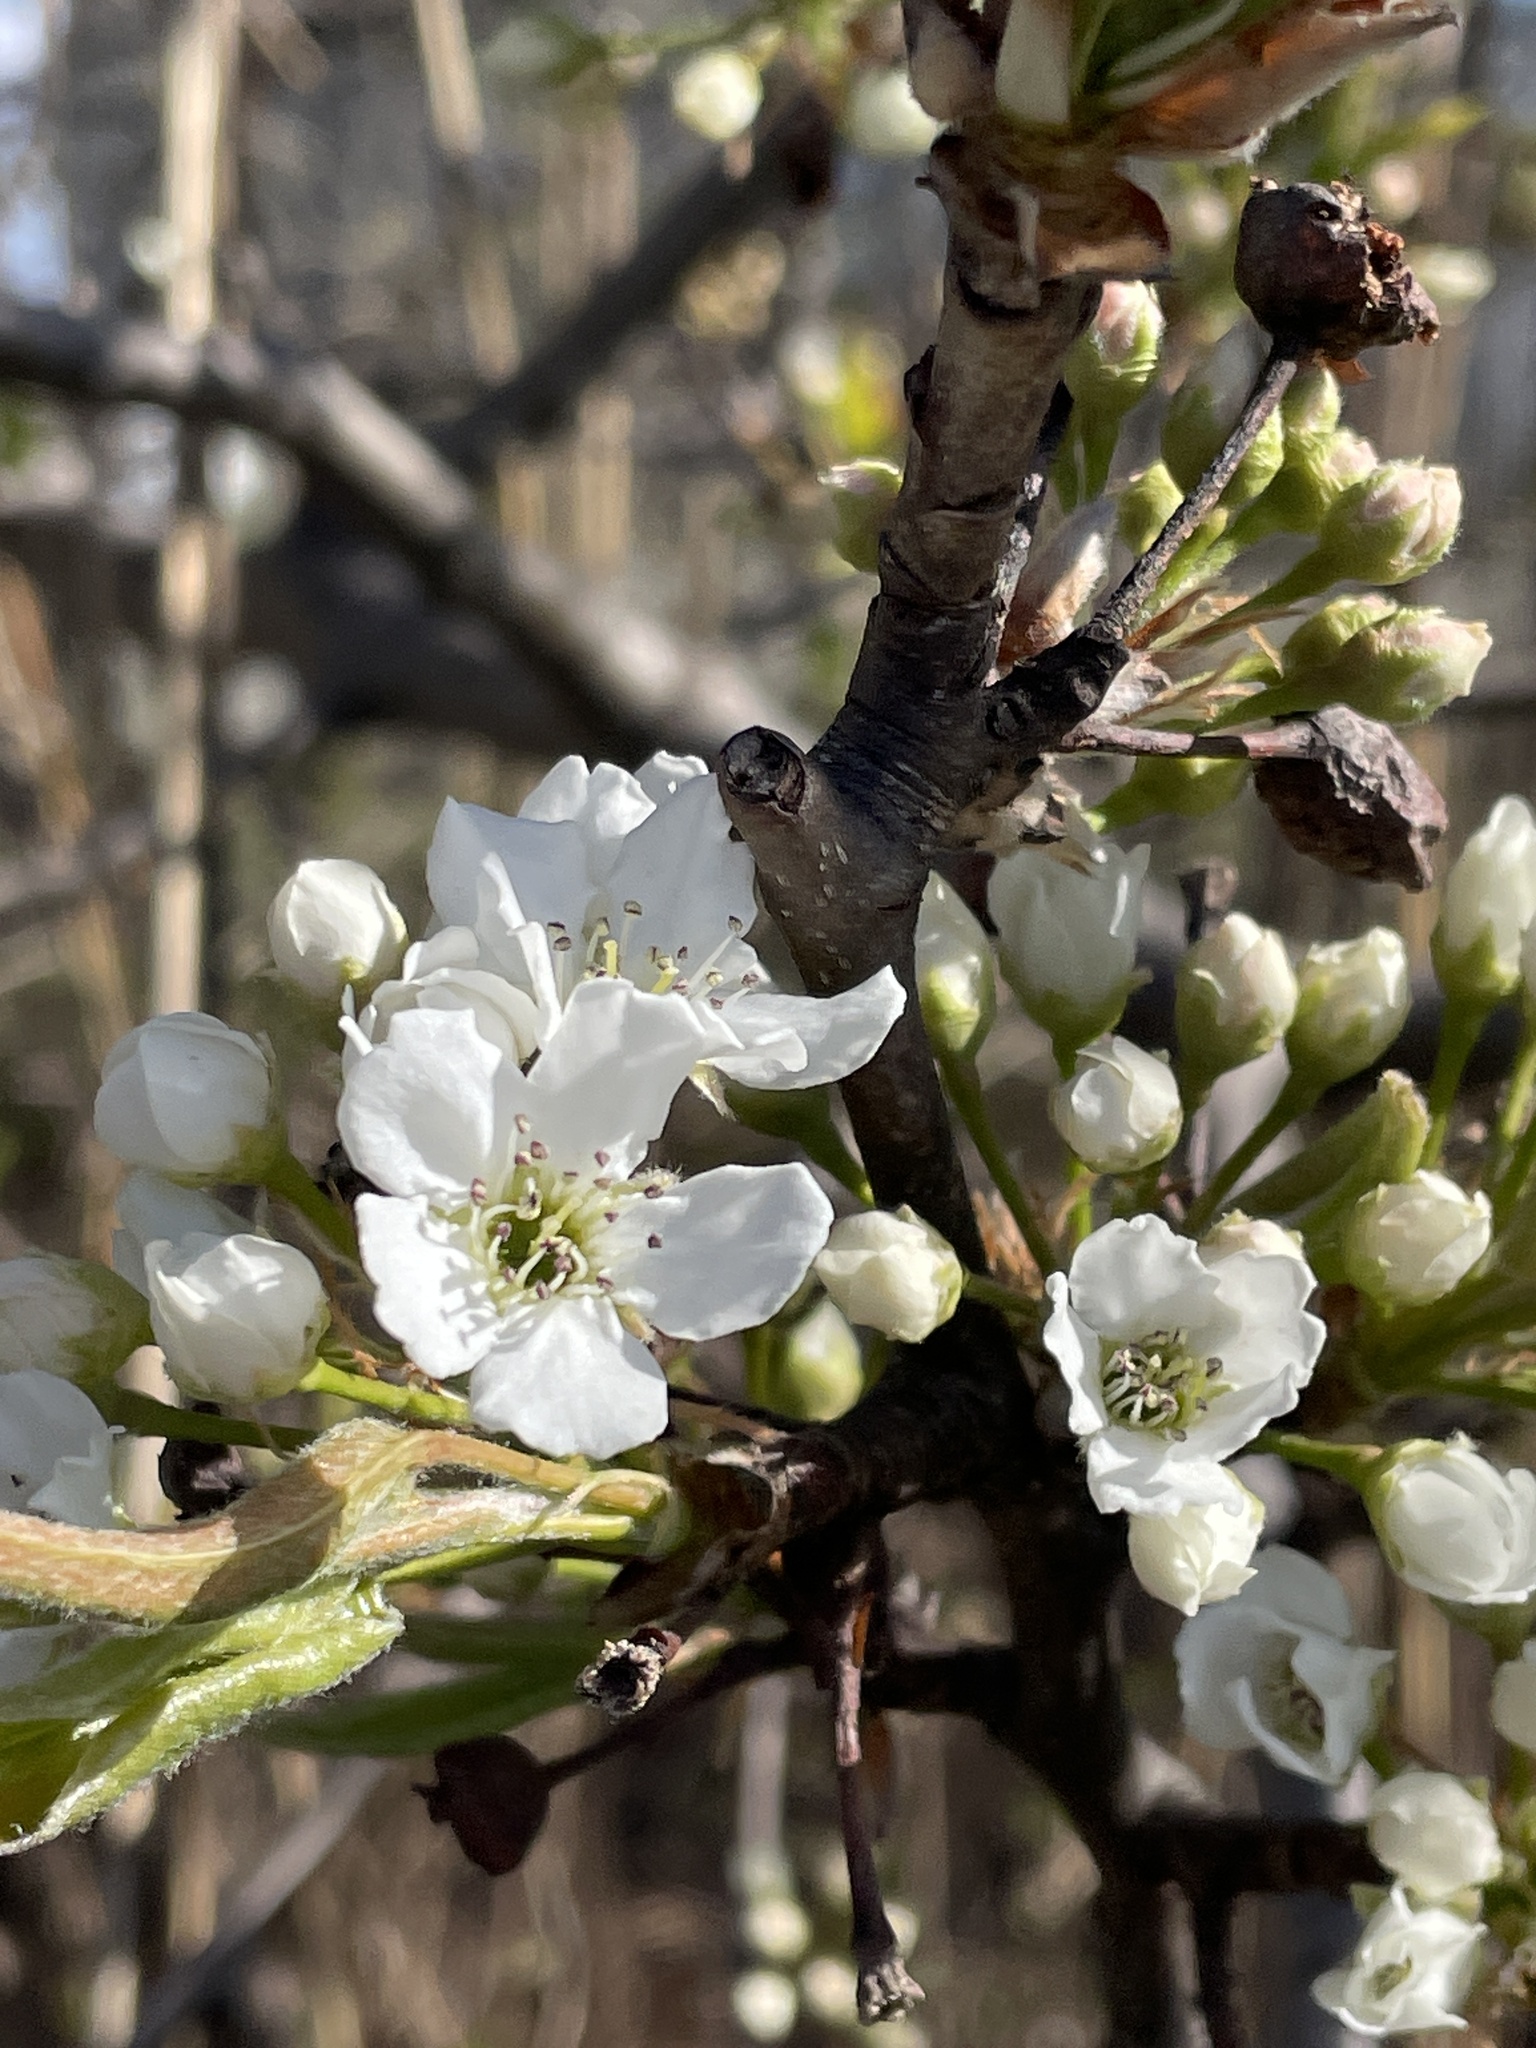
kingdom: Plantae
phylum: Tracheophyta
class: Magnoliopsida
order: Rosales
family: Rosaceae
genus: Pyrus
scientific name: Pyrus calleryana
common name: Callery pear
